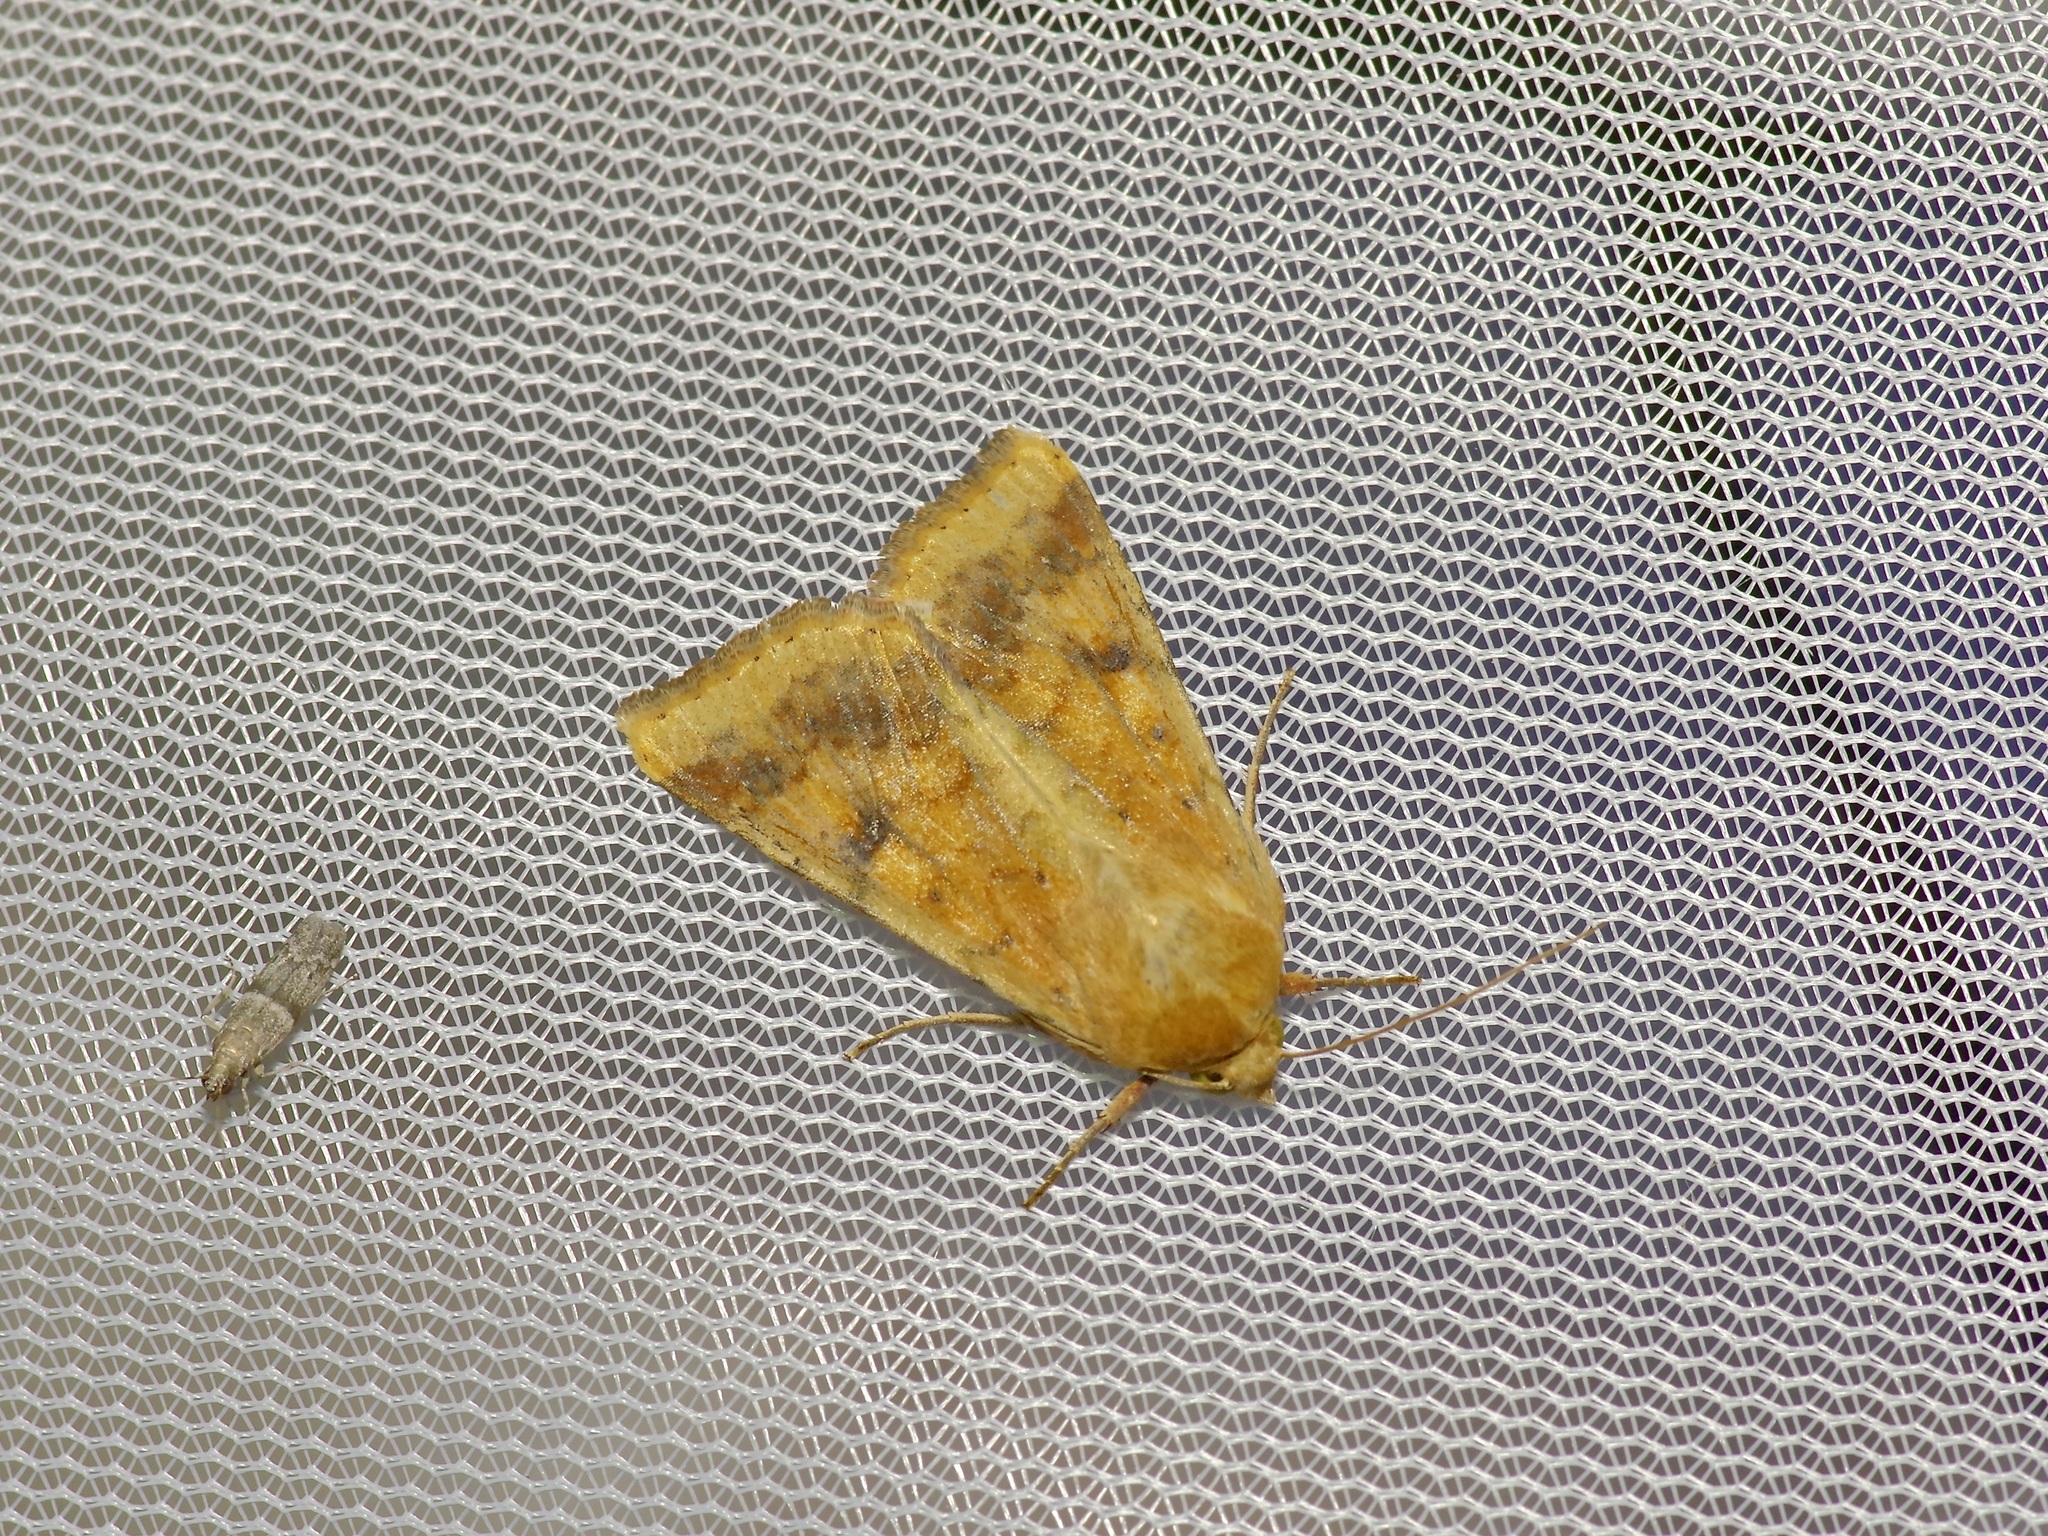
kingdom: Animalia
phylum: Arthropoda
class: Insecta
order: Lepidoptera
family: Noctuidae
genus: Helicoverpa
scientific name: Helicoverpa zea
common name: Bollworm
